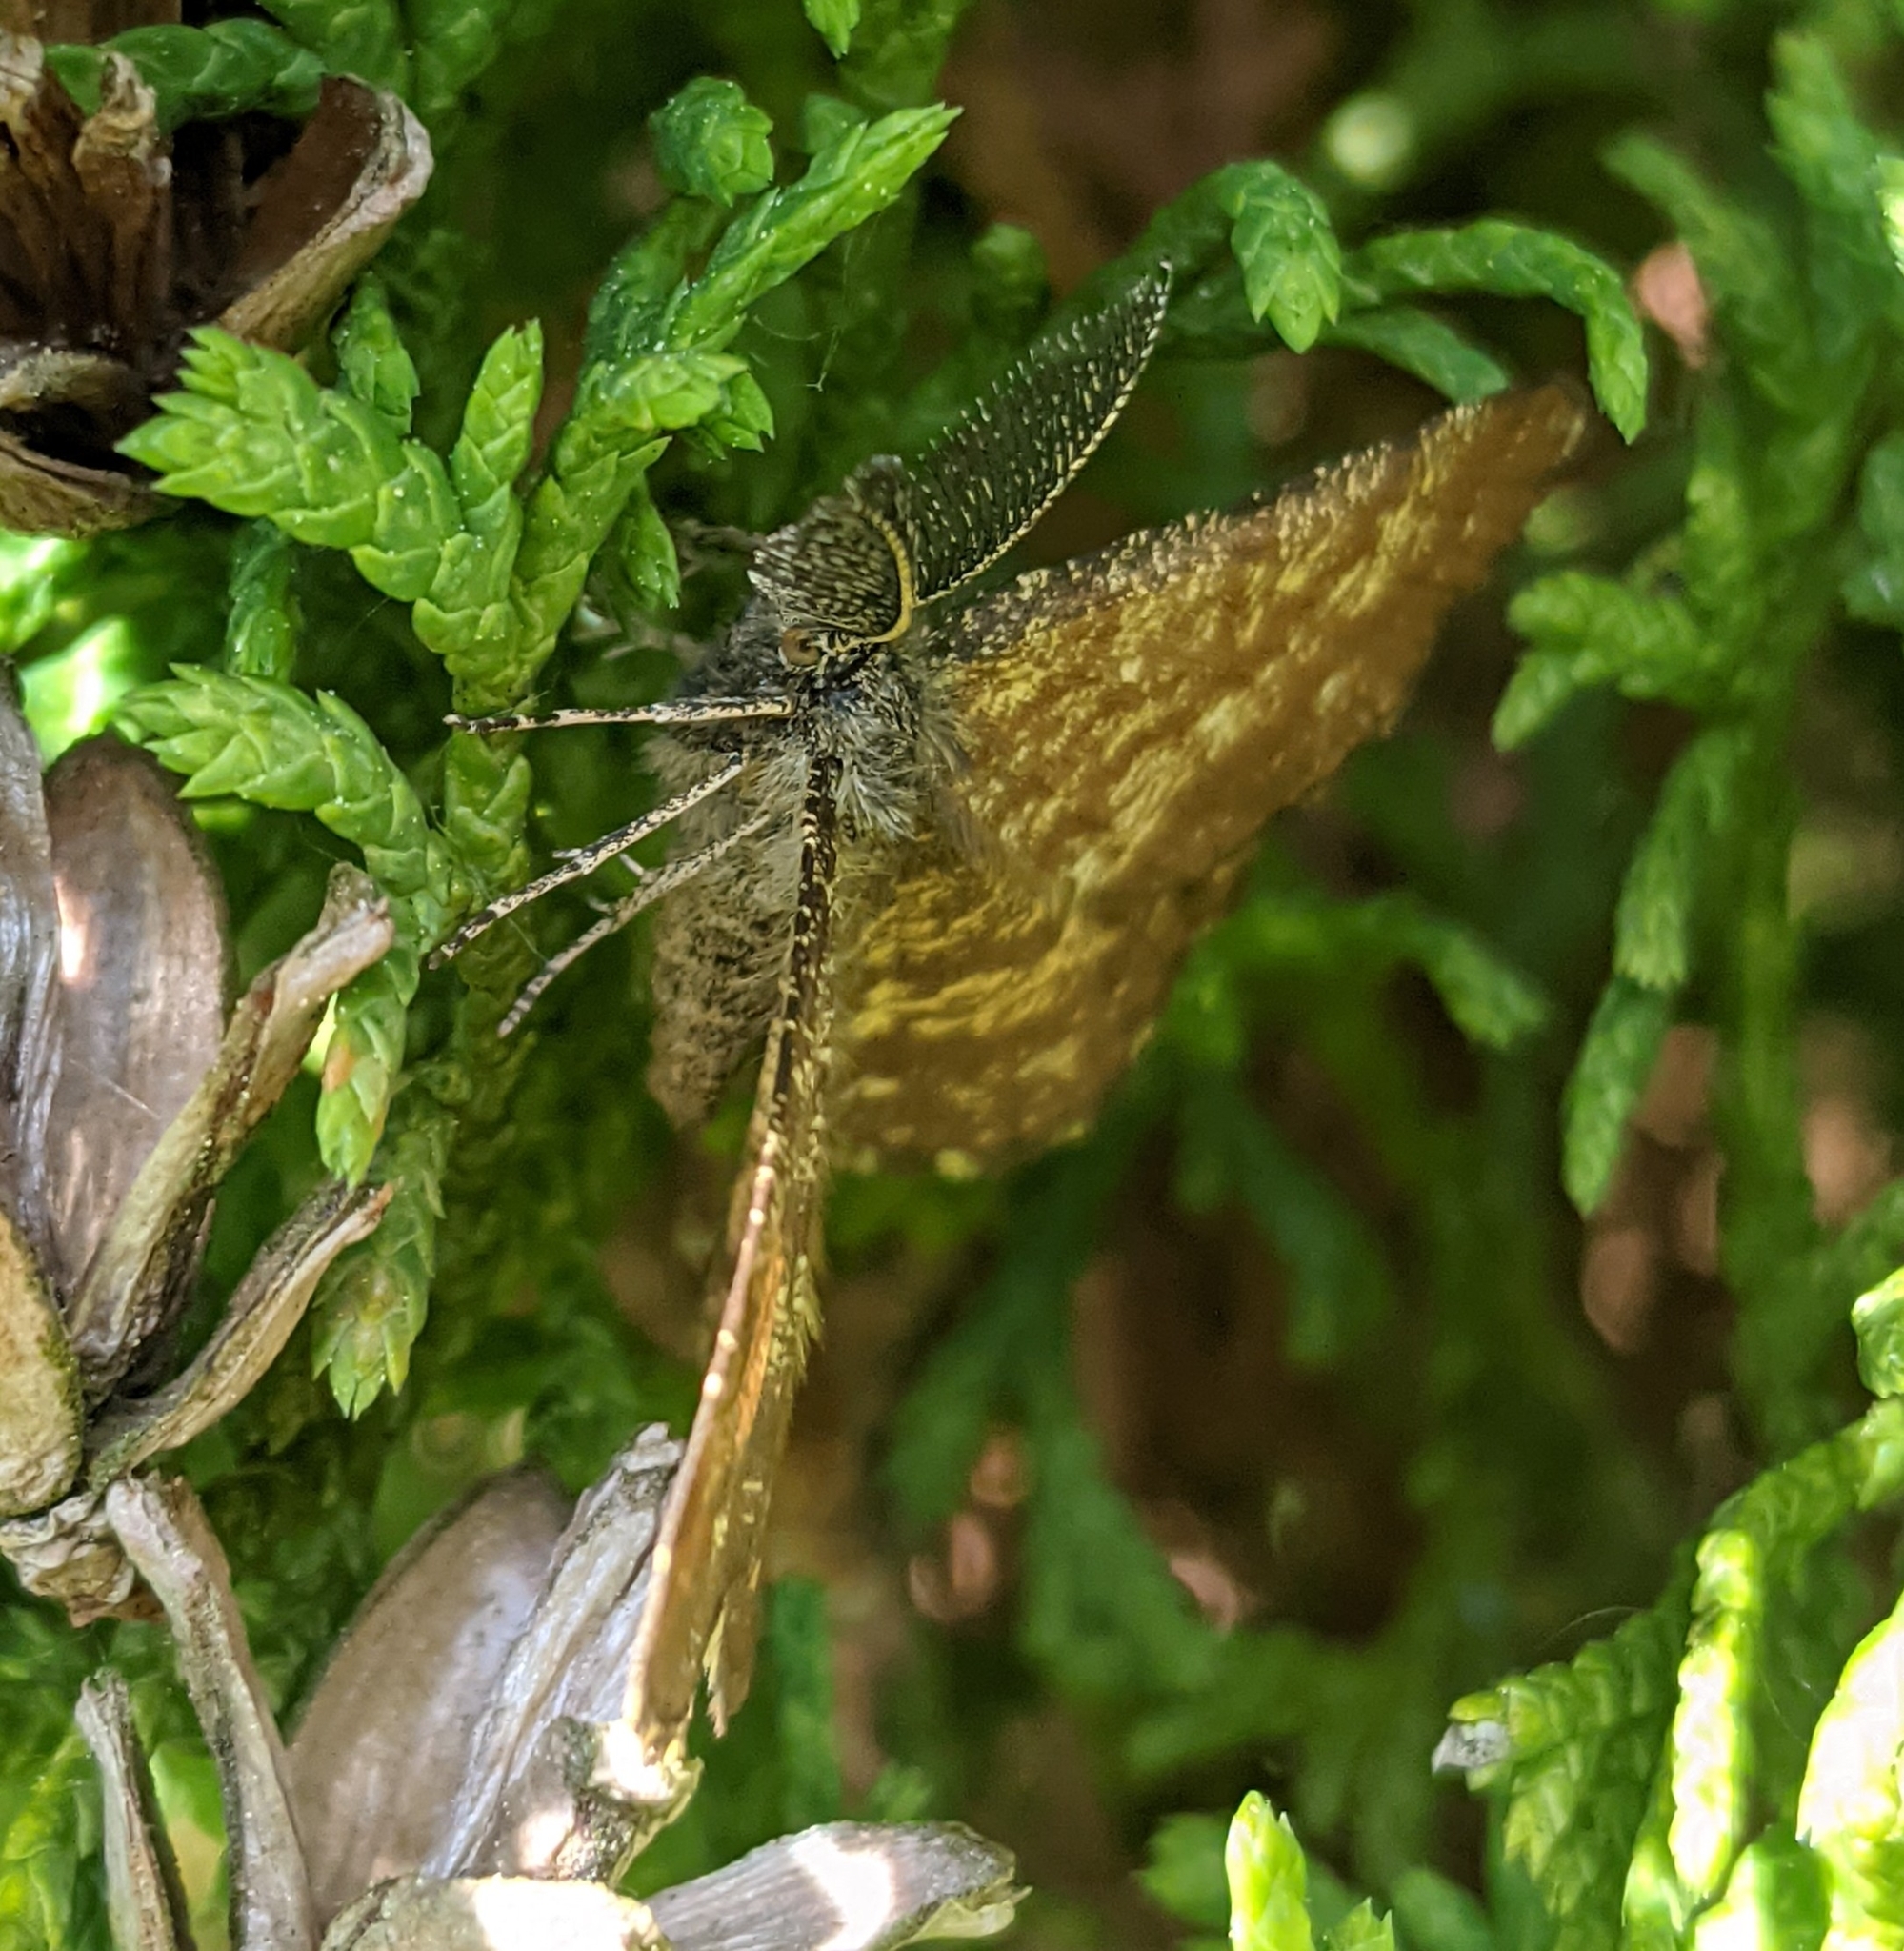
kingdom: Animalia
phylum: Arthropoda
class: Insecta
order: Lepidoptera
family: Geometridae
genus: Ematurga
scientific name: Ematurga atomaria
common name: Common heath
